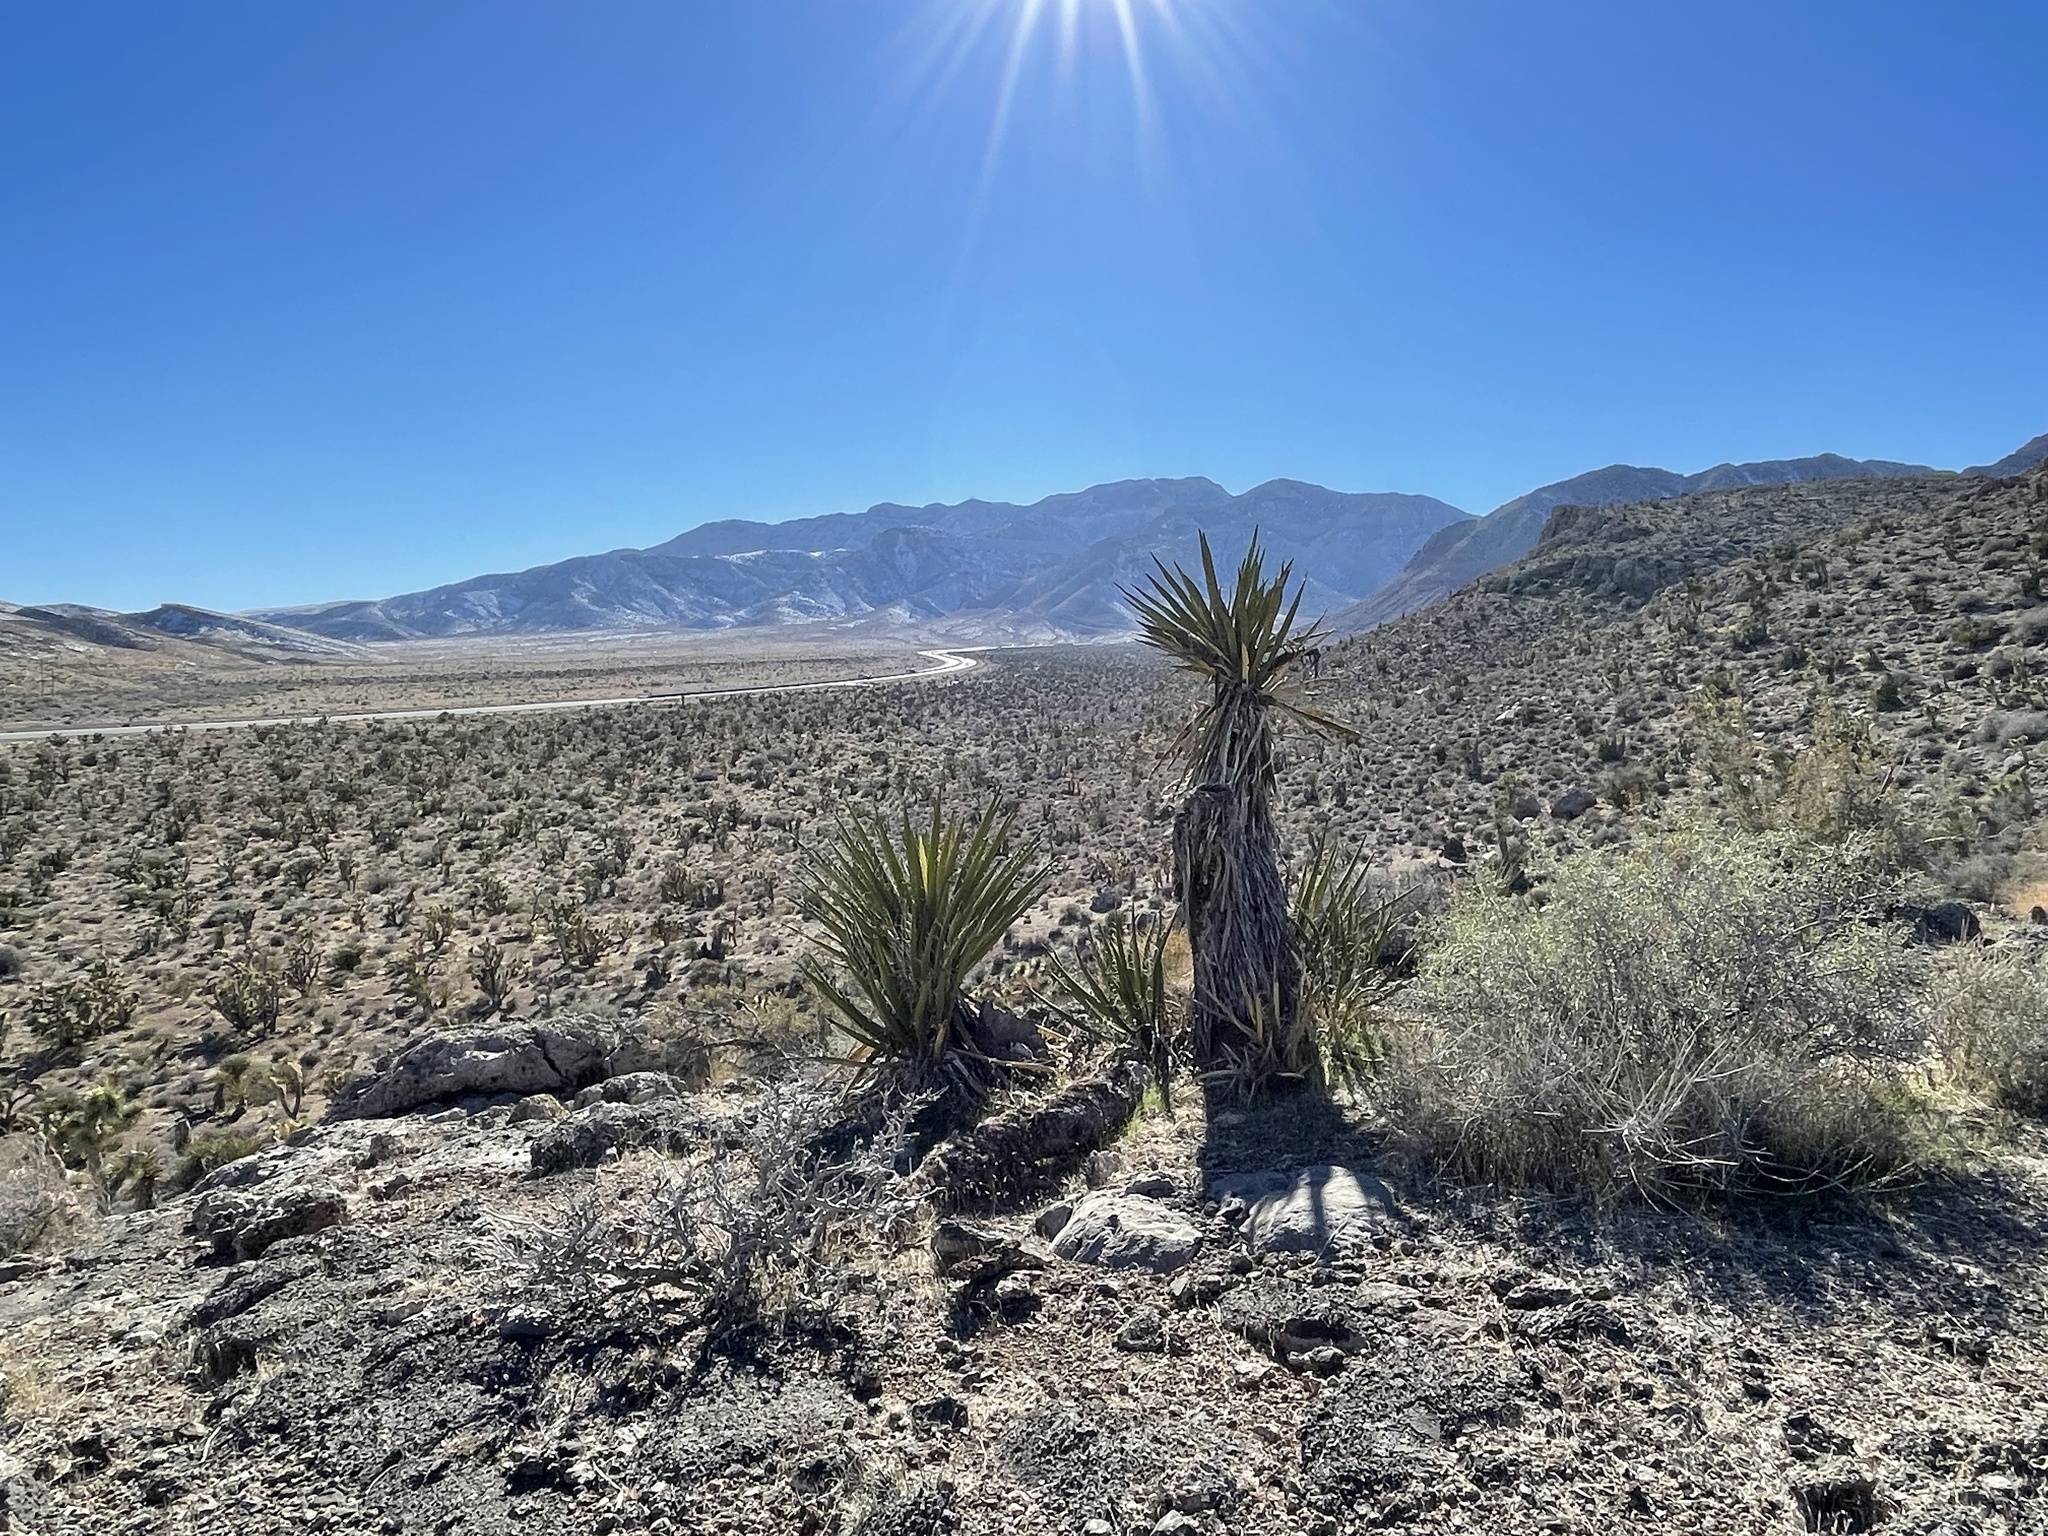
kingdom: Plantae
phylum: Tracheophyta
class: Liliopsida
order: Asparagales
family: Asparagaceae
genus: Yucca
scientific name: Yucca schidigera
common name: Mojave yucca
